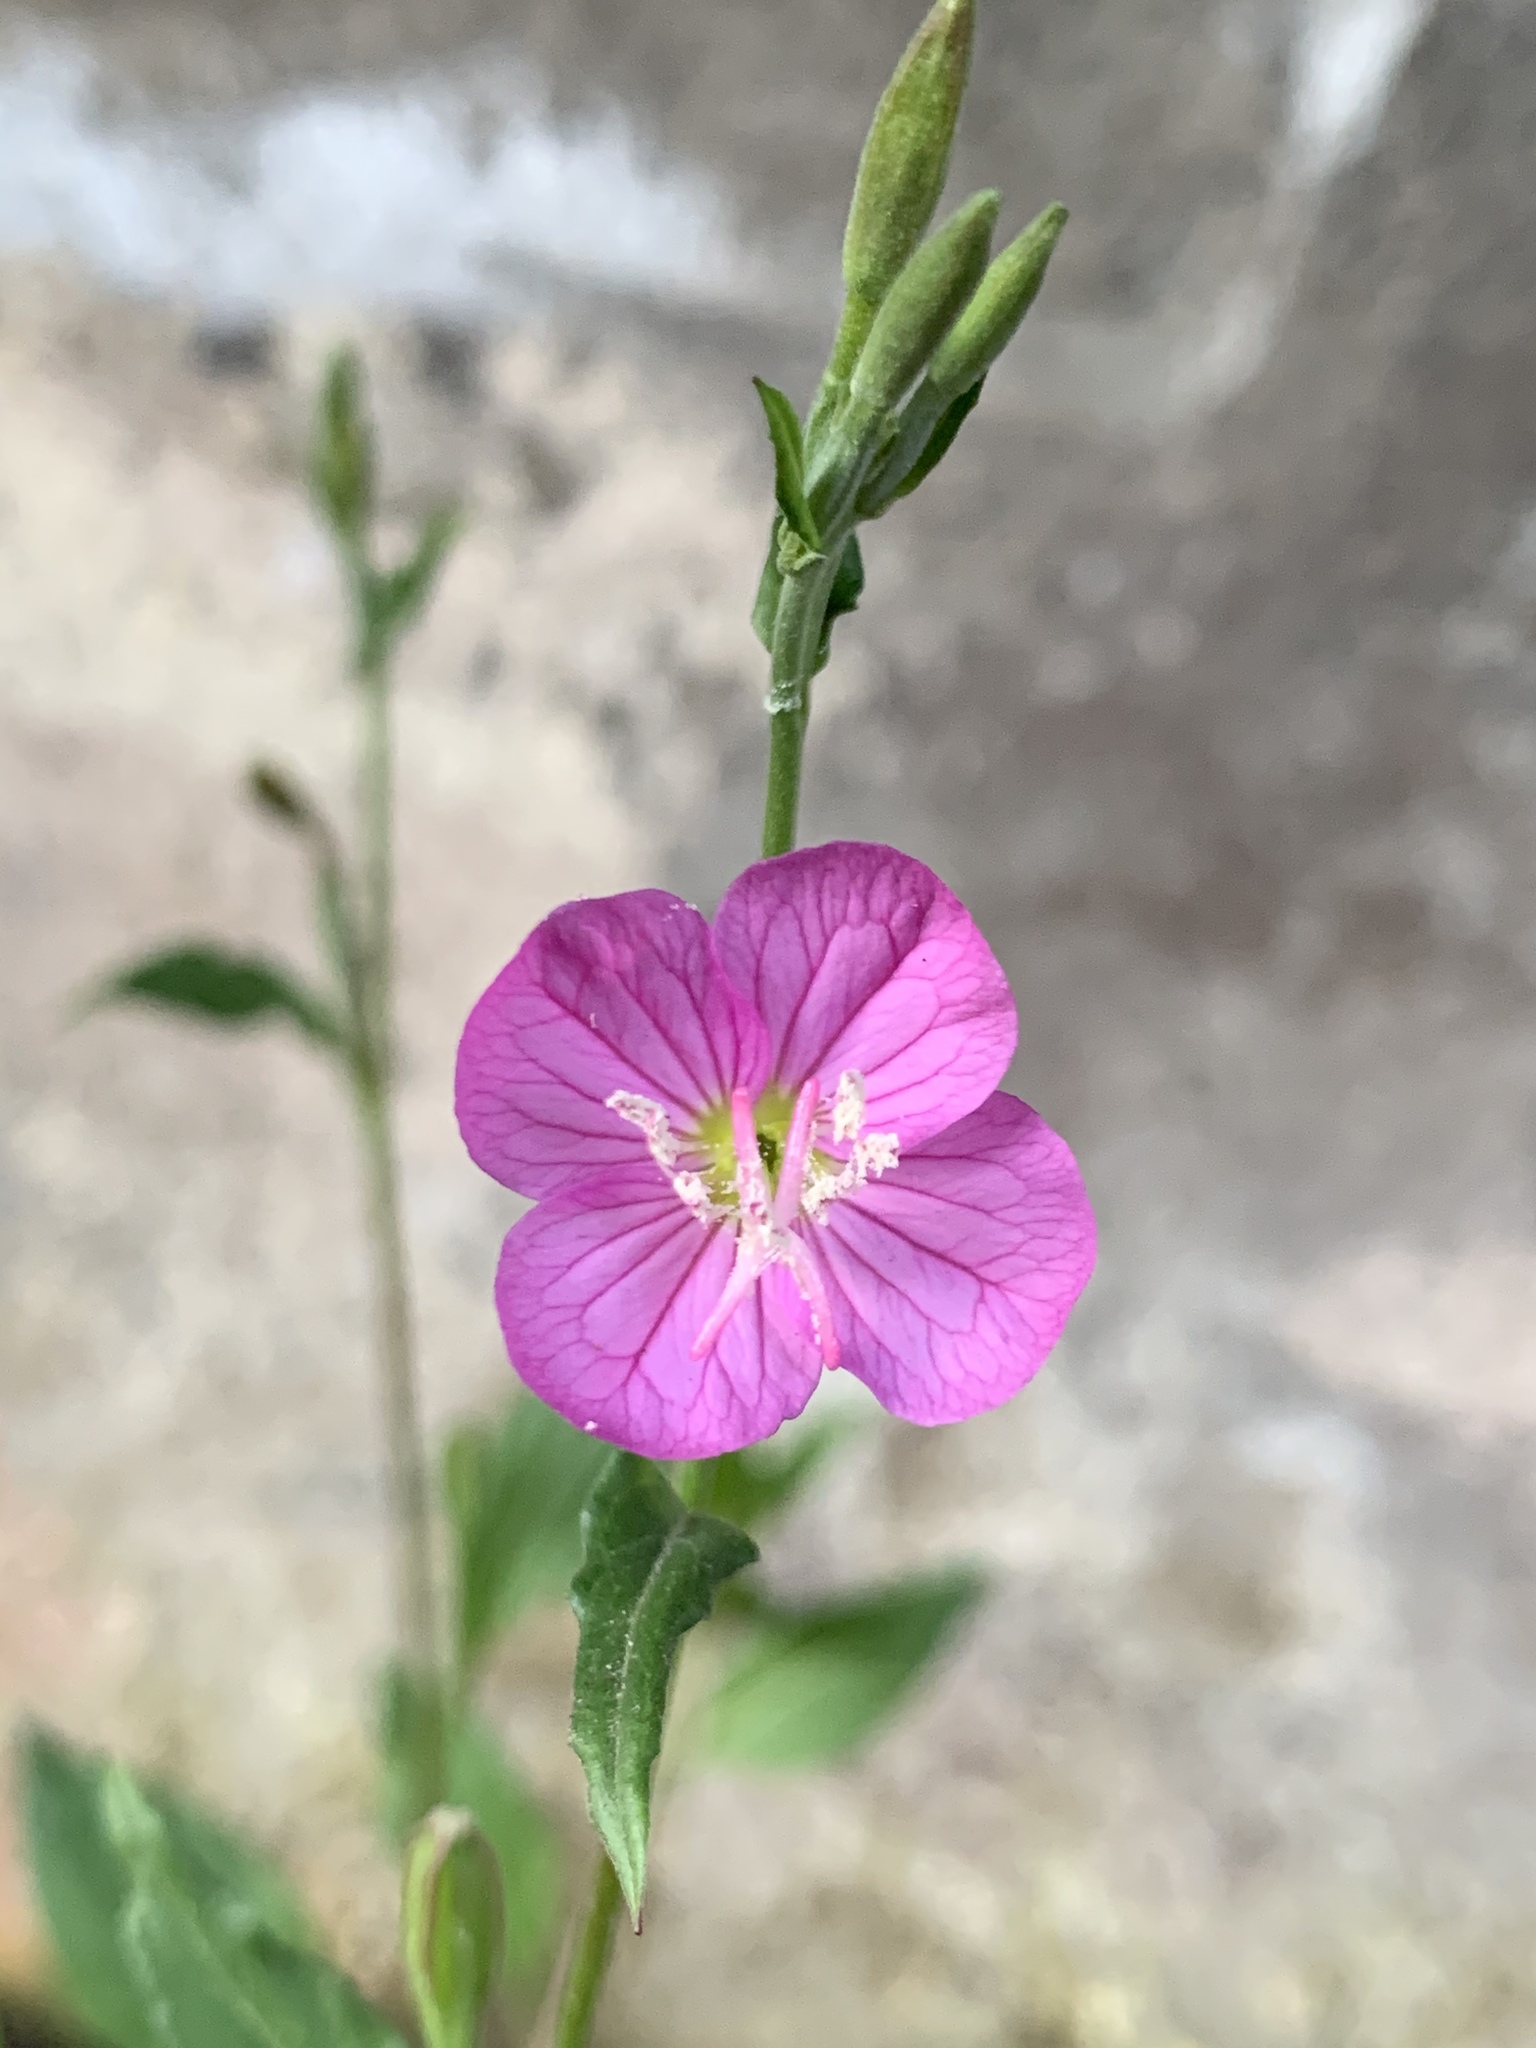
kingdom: Plantae
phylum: Tracheophyta
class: Magnoliopsida
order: Myrtales
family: Onagraceae
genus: Oenothera
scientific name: Oenothera rosea
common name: Rosy evening-primrose
